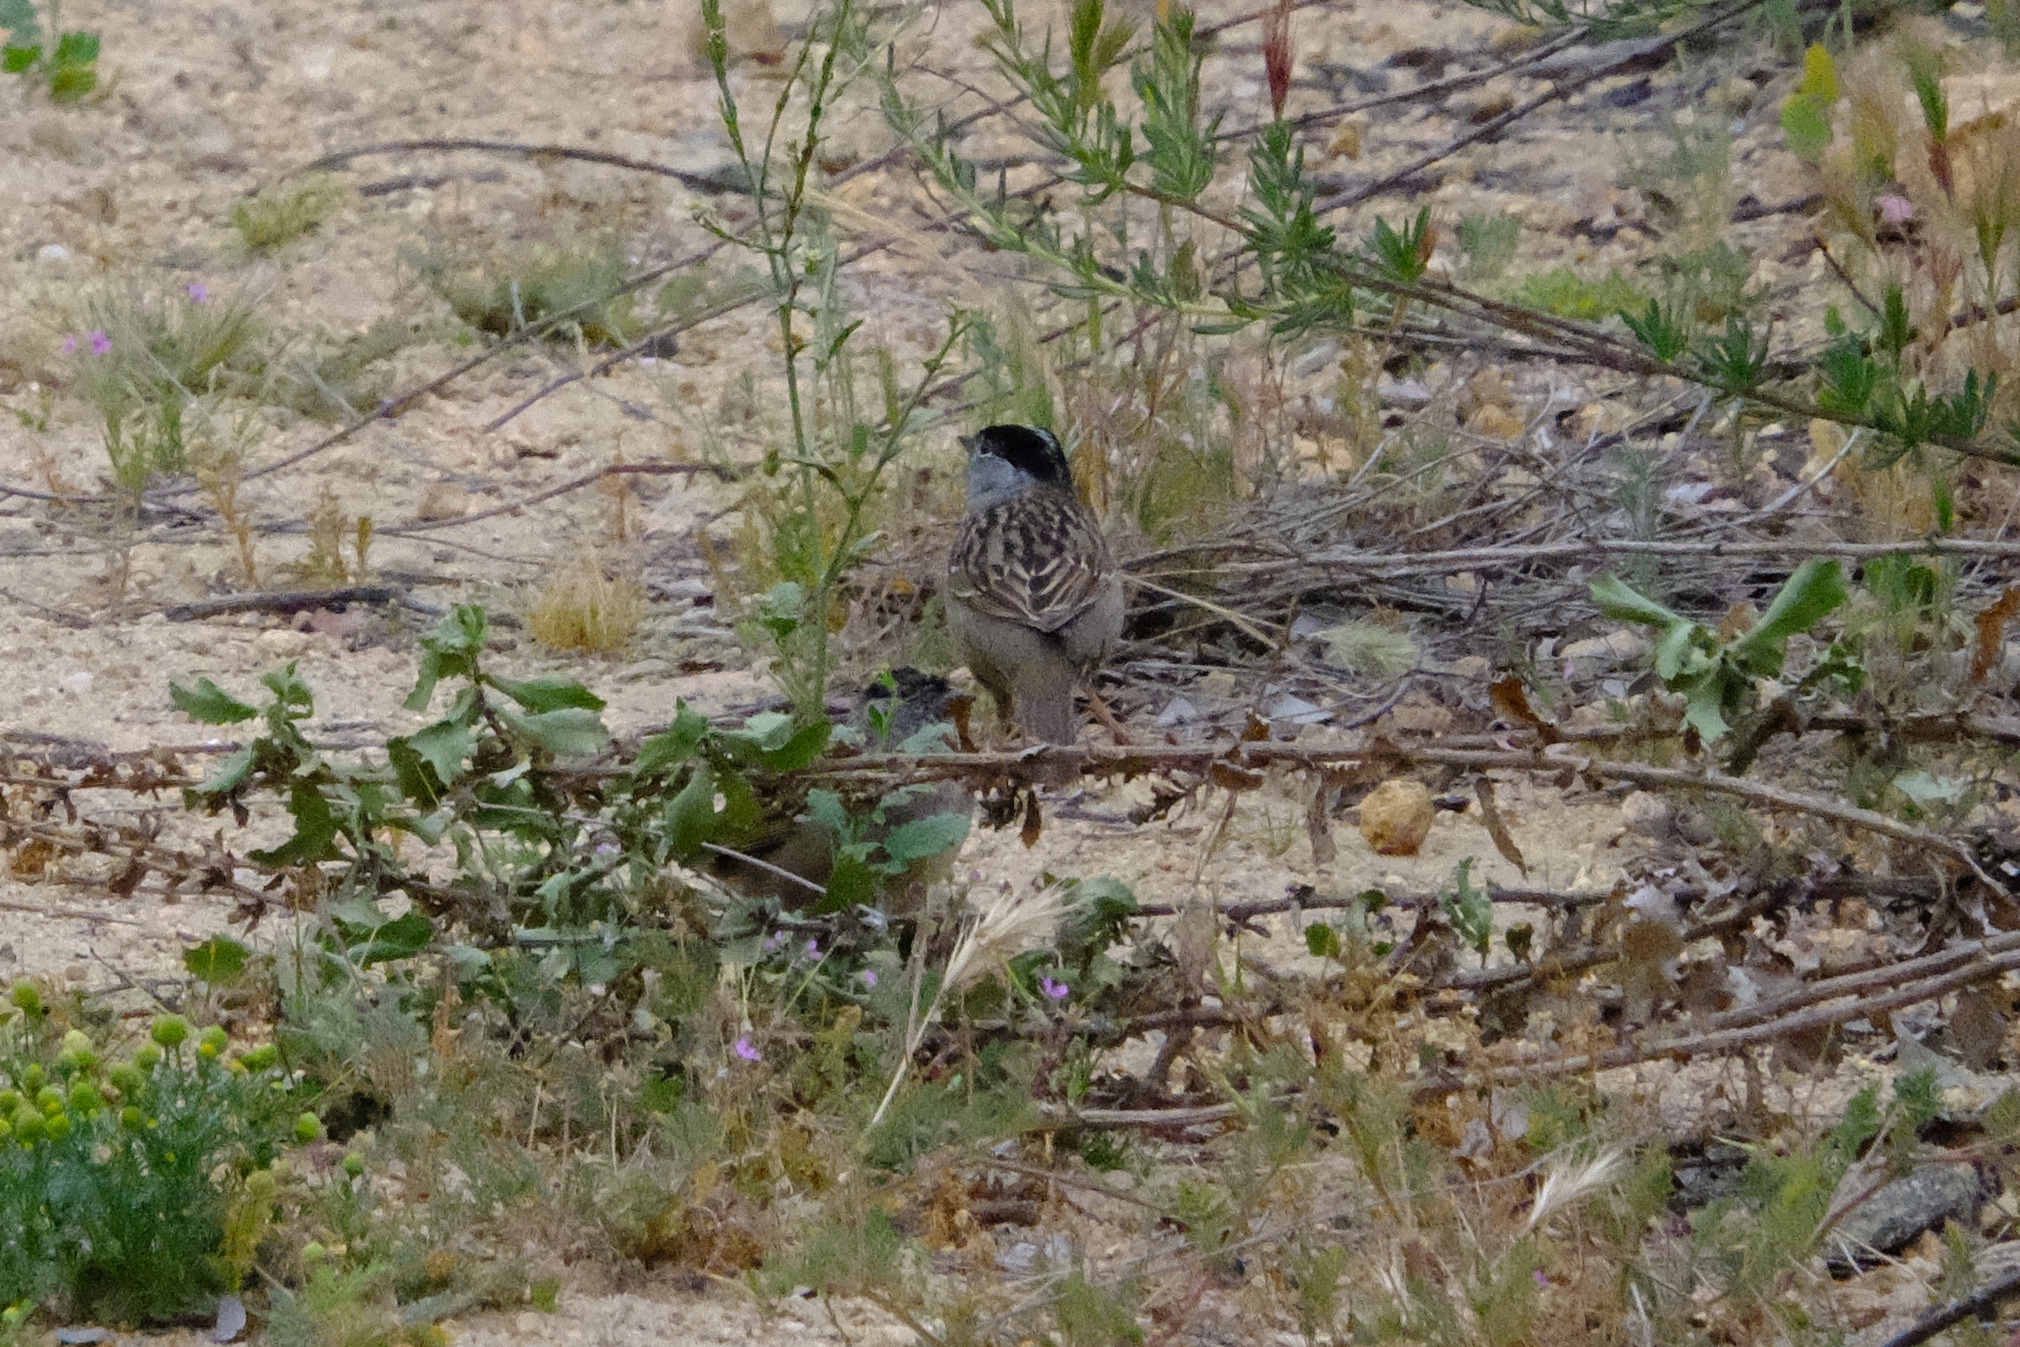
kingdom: Animalia
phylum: Chordata
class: Aves
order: Passeriformes
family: Passerellidae
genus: Zonotrichia
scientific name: Zonotrichia atricapilla
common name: Golden-crowned sparrow
